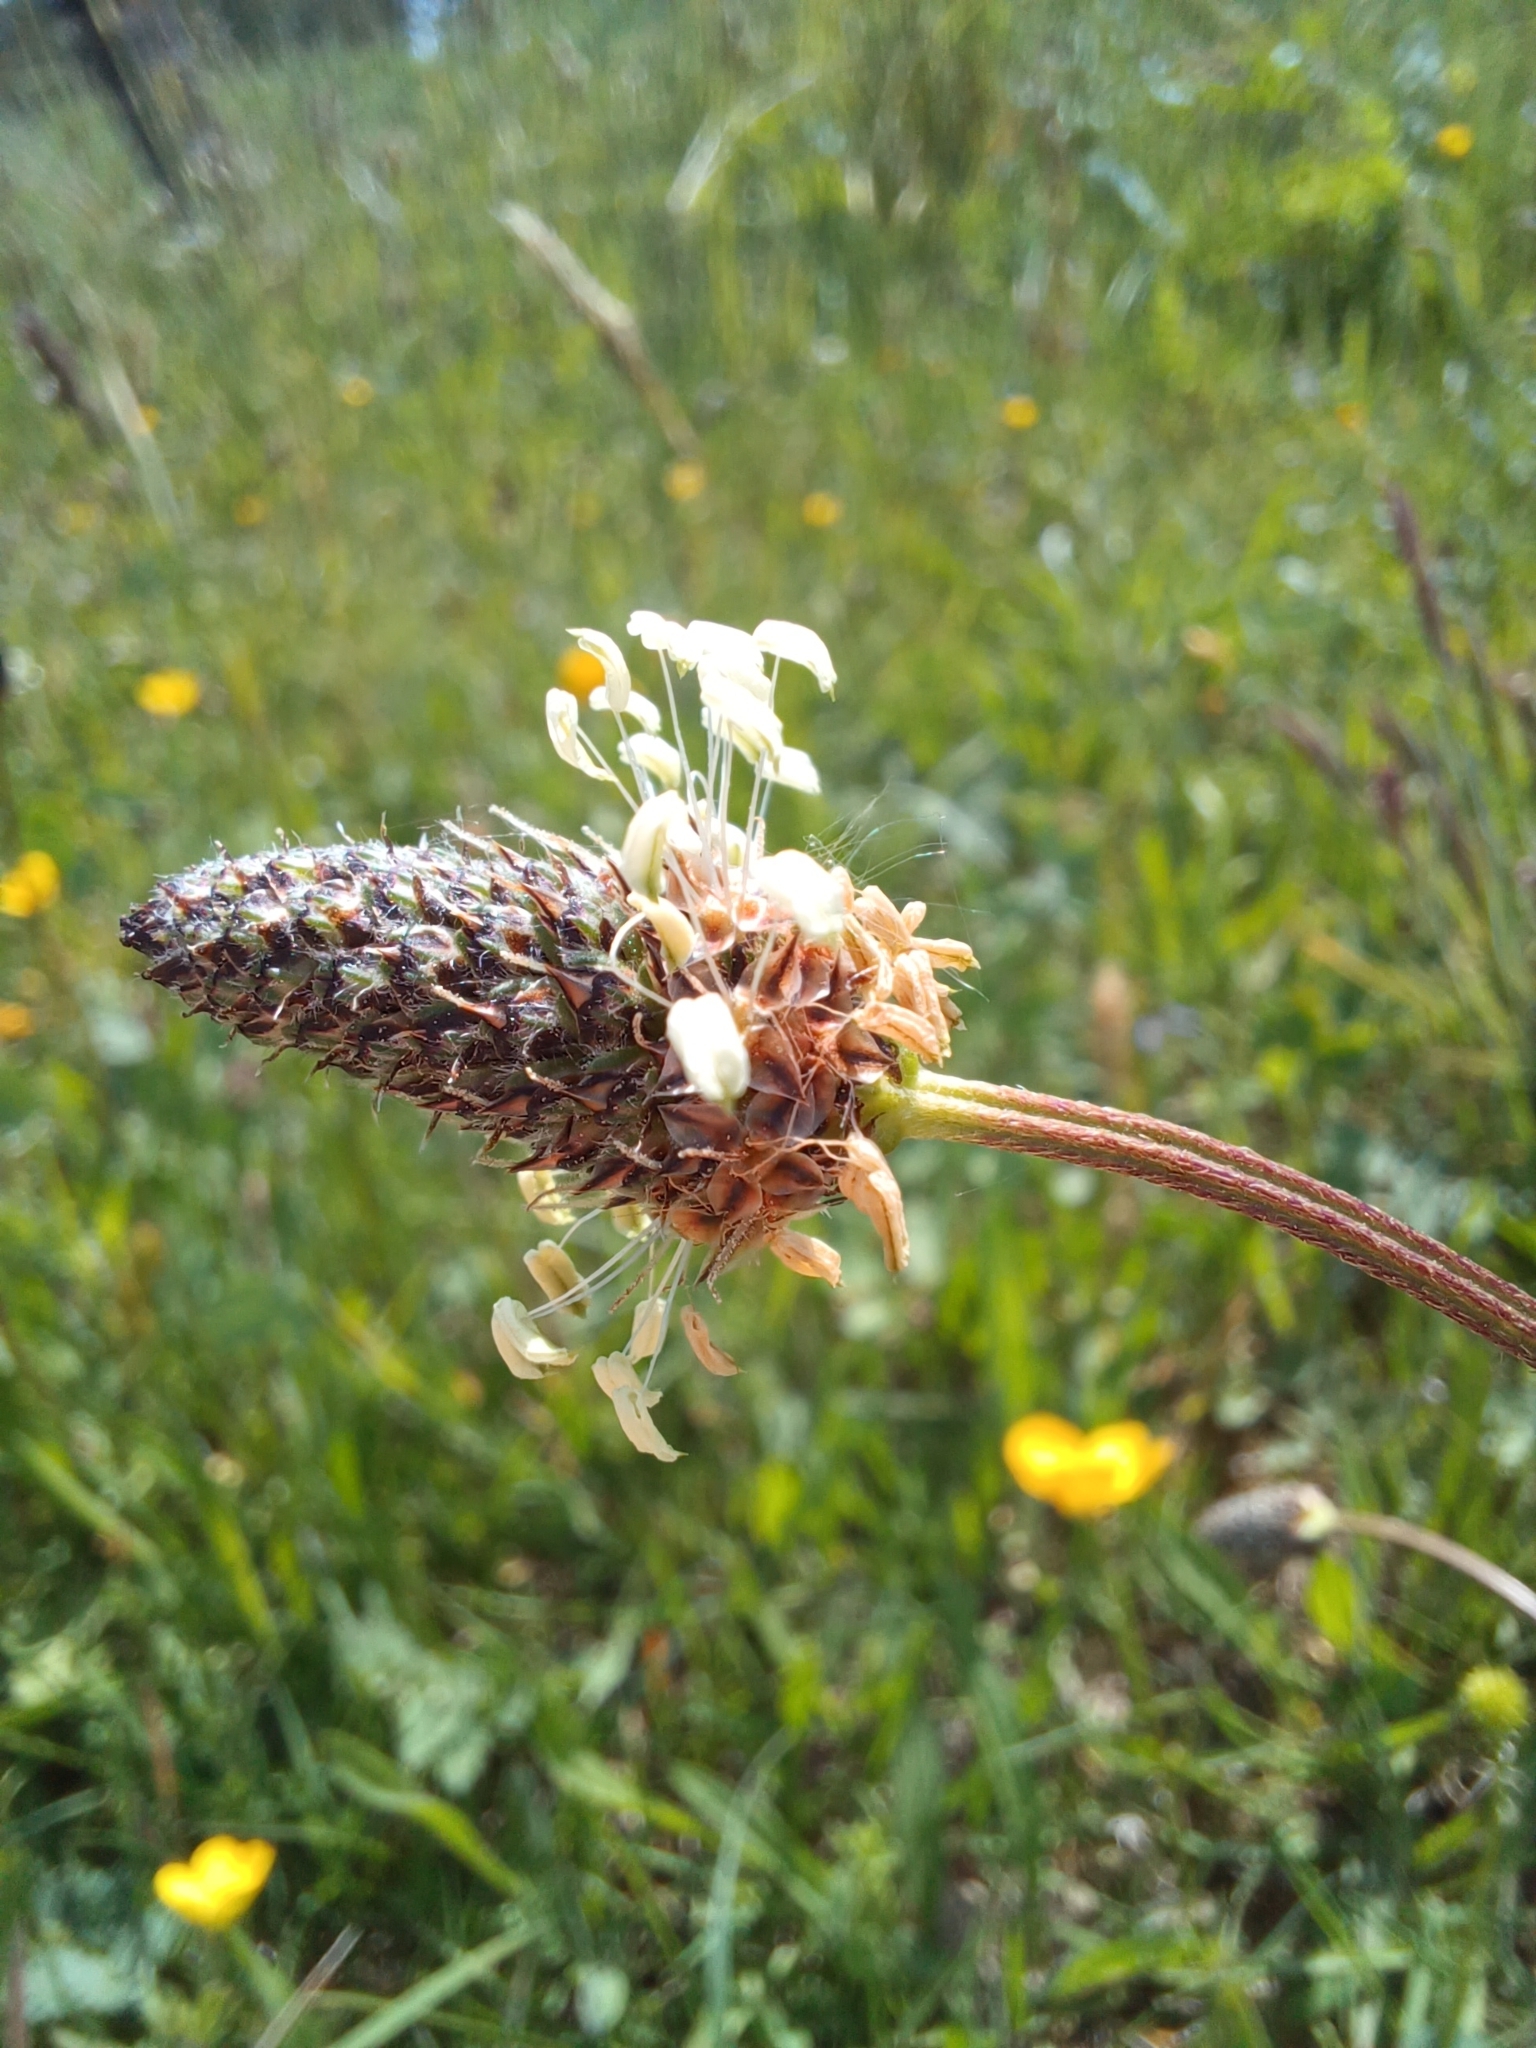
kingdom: Plantae
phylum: Tracheophyta
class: Magnoliopsida
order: Lamiales
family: Plantaginaceae
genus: Plantago
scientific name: Plantago lanceolata
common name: Ribwort plantain
